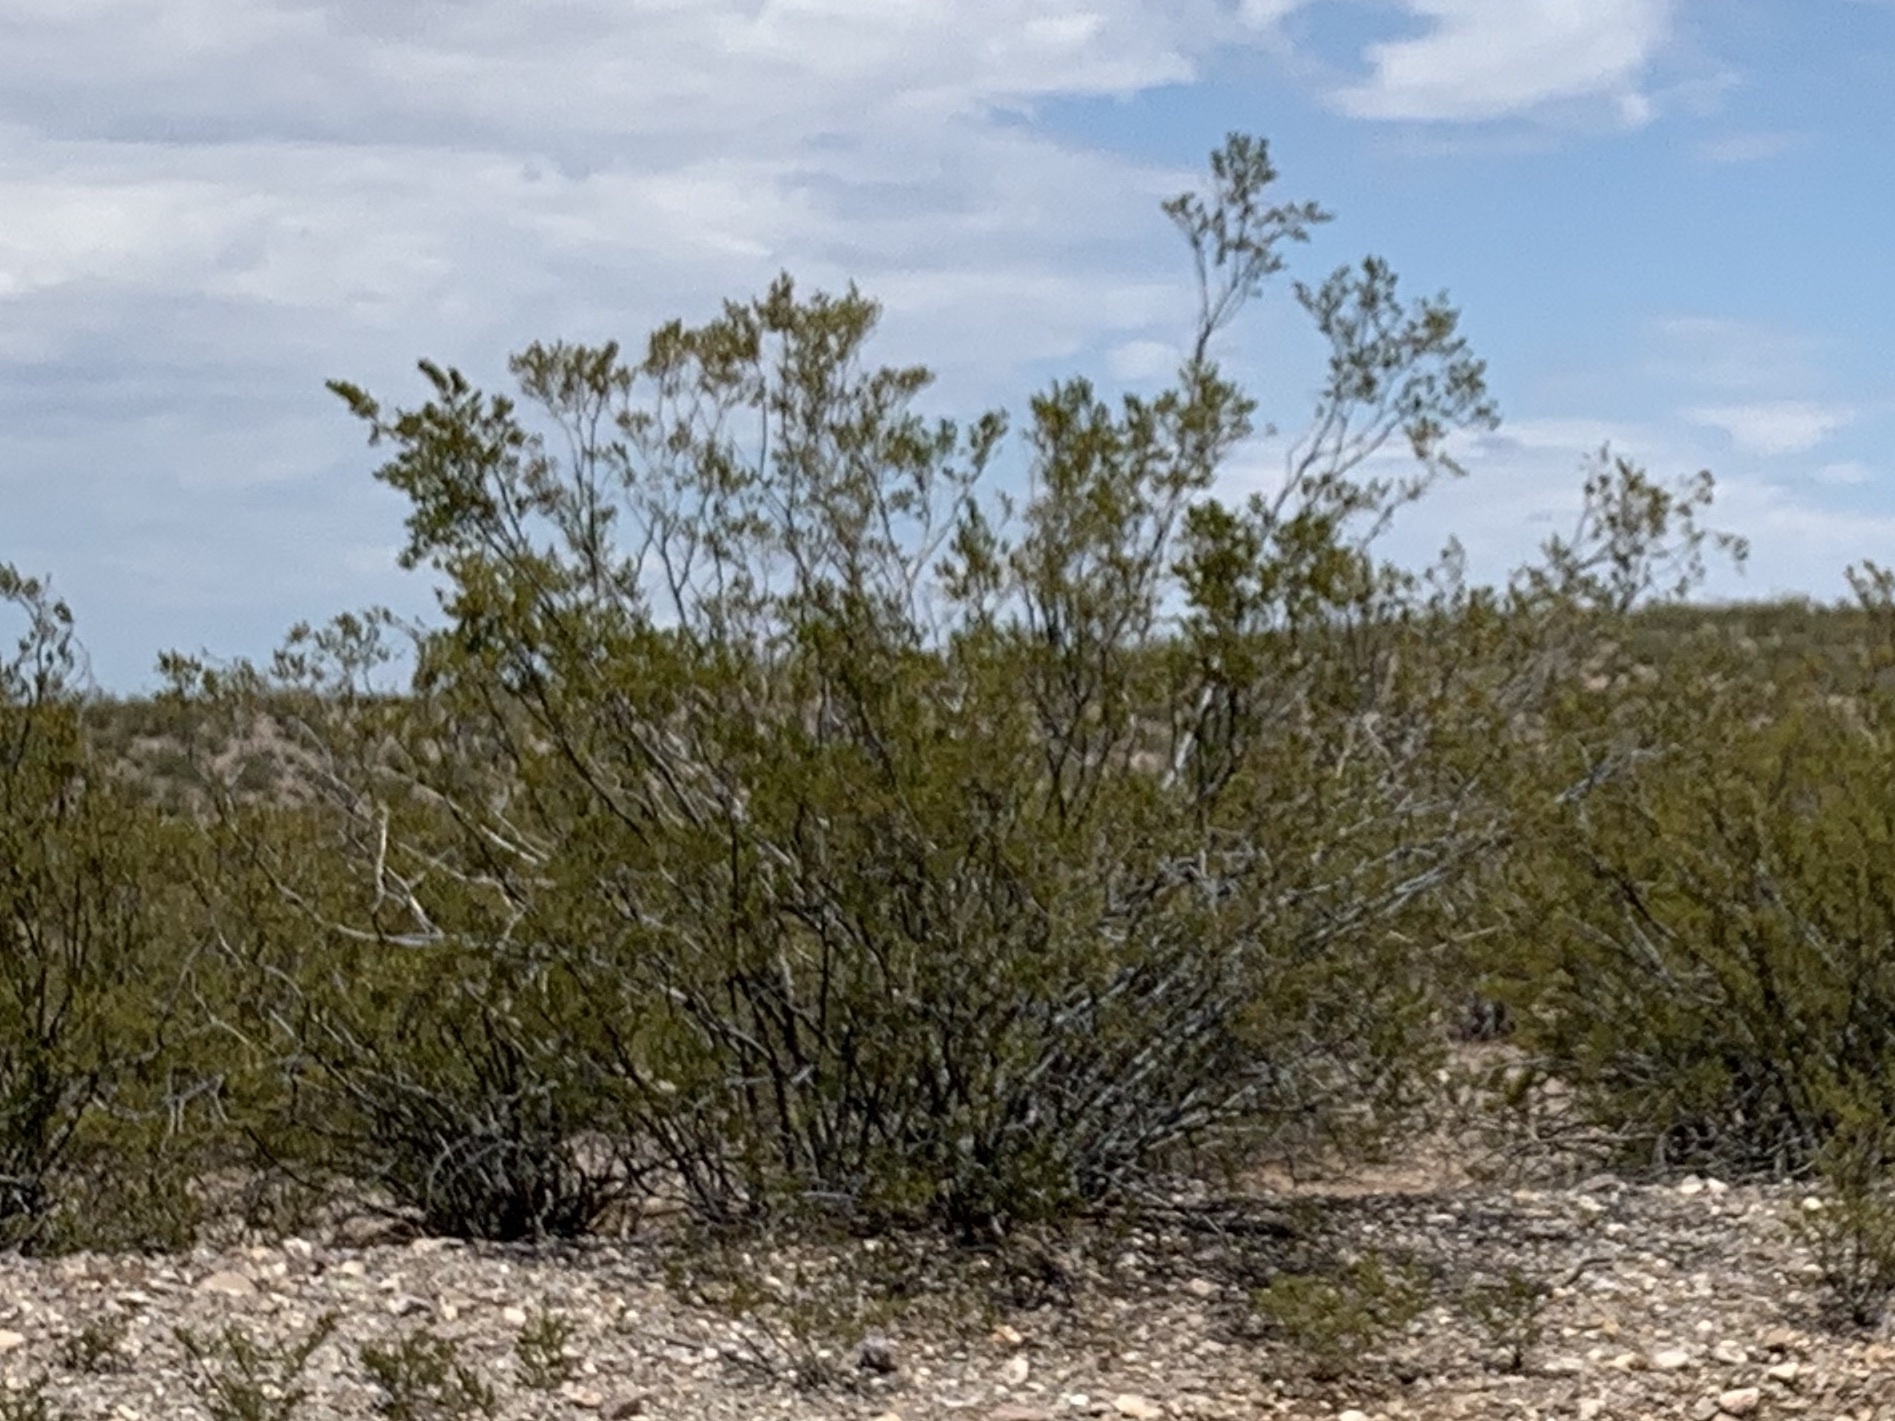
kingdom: Plantae
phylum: Tracheophyta
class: Magnoliopsida
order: Zygophyllales
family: Zygophyllaceae
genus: Larrea
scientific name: Larrea tridentata
